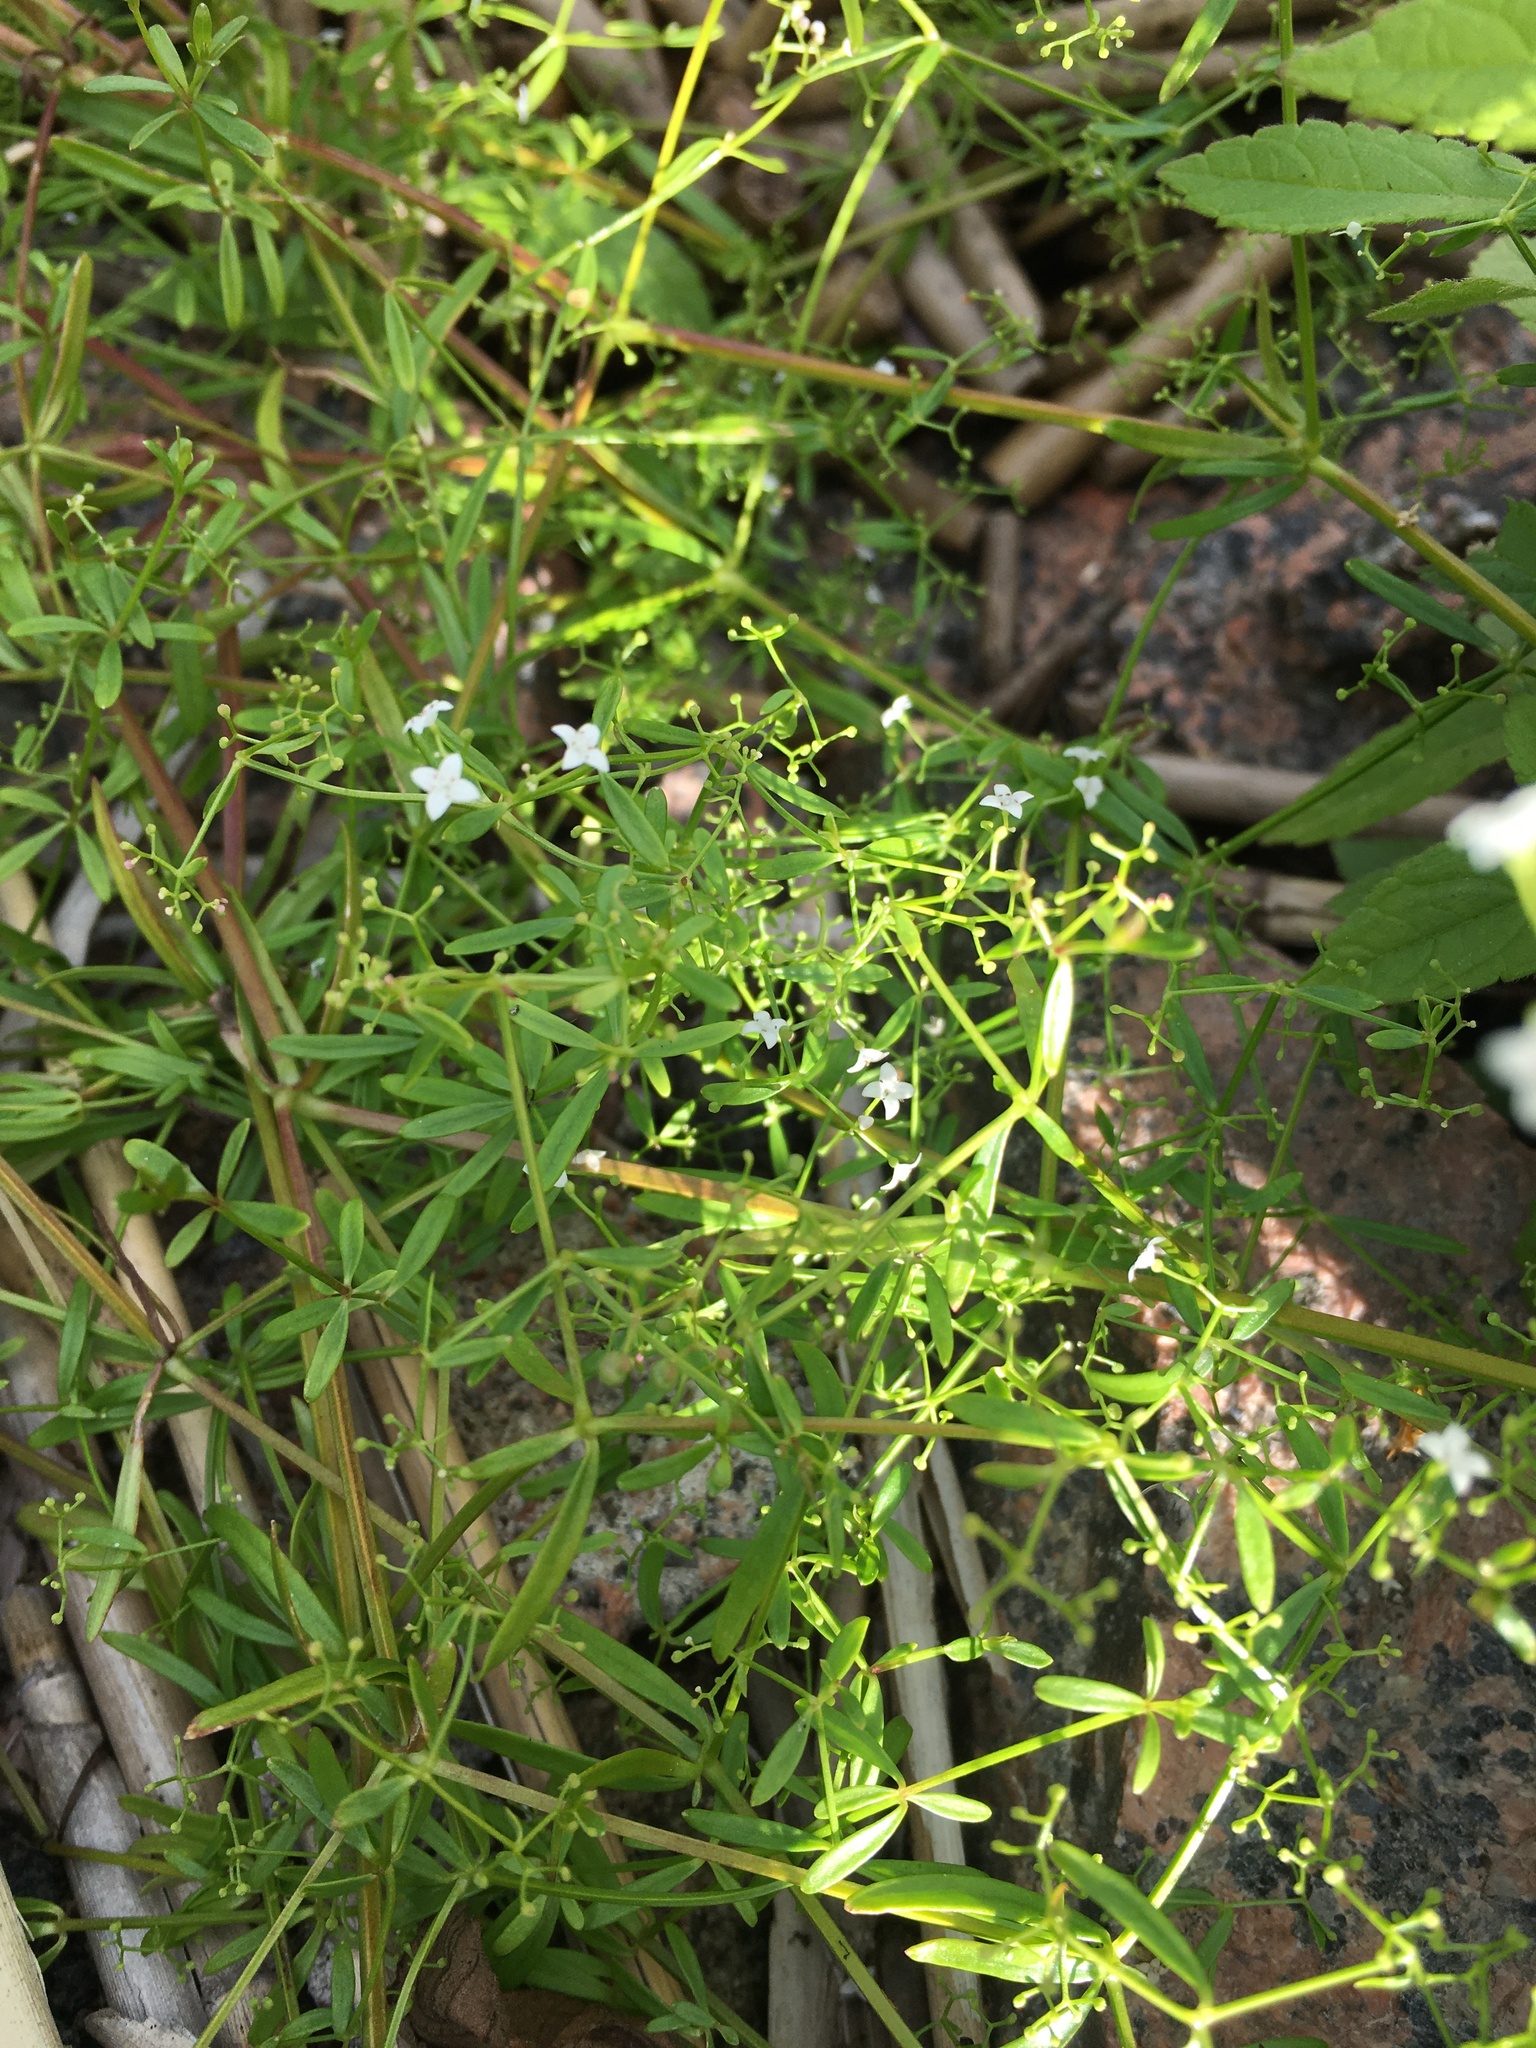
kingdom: Plantae
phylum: Tracheophyta
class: Magnoliopsida
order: Gentianales
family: Rubiaceae
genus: Galium
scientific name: Galium palustre
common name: Common marsh-bedstraw
